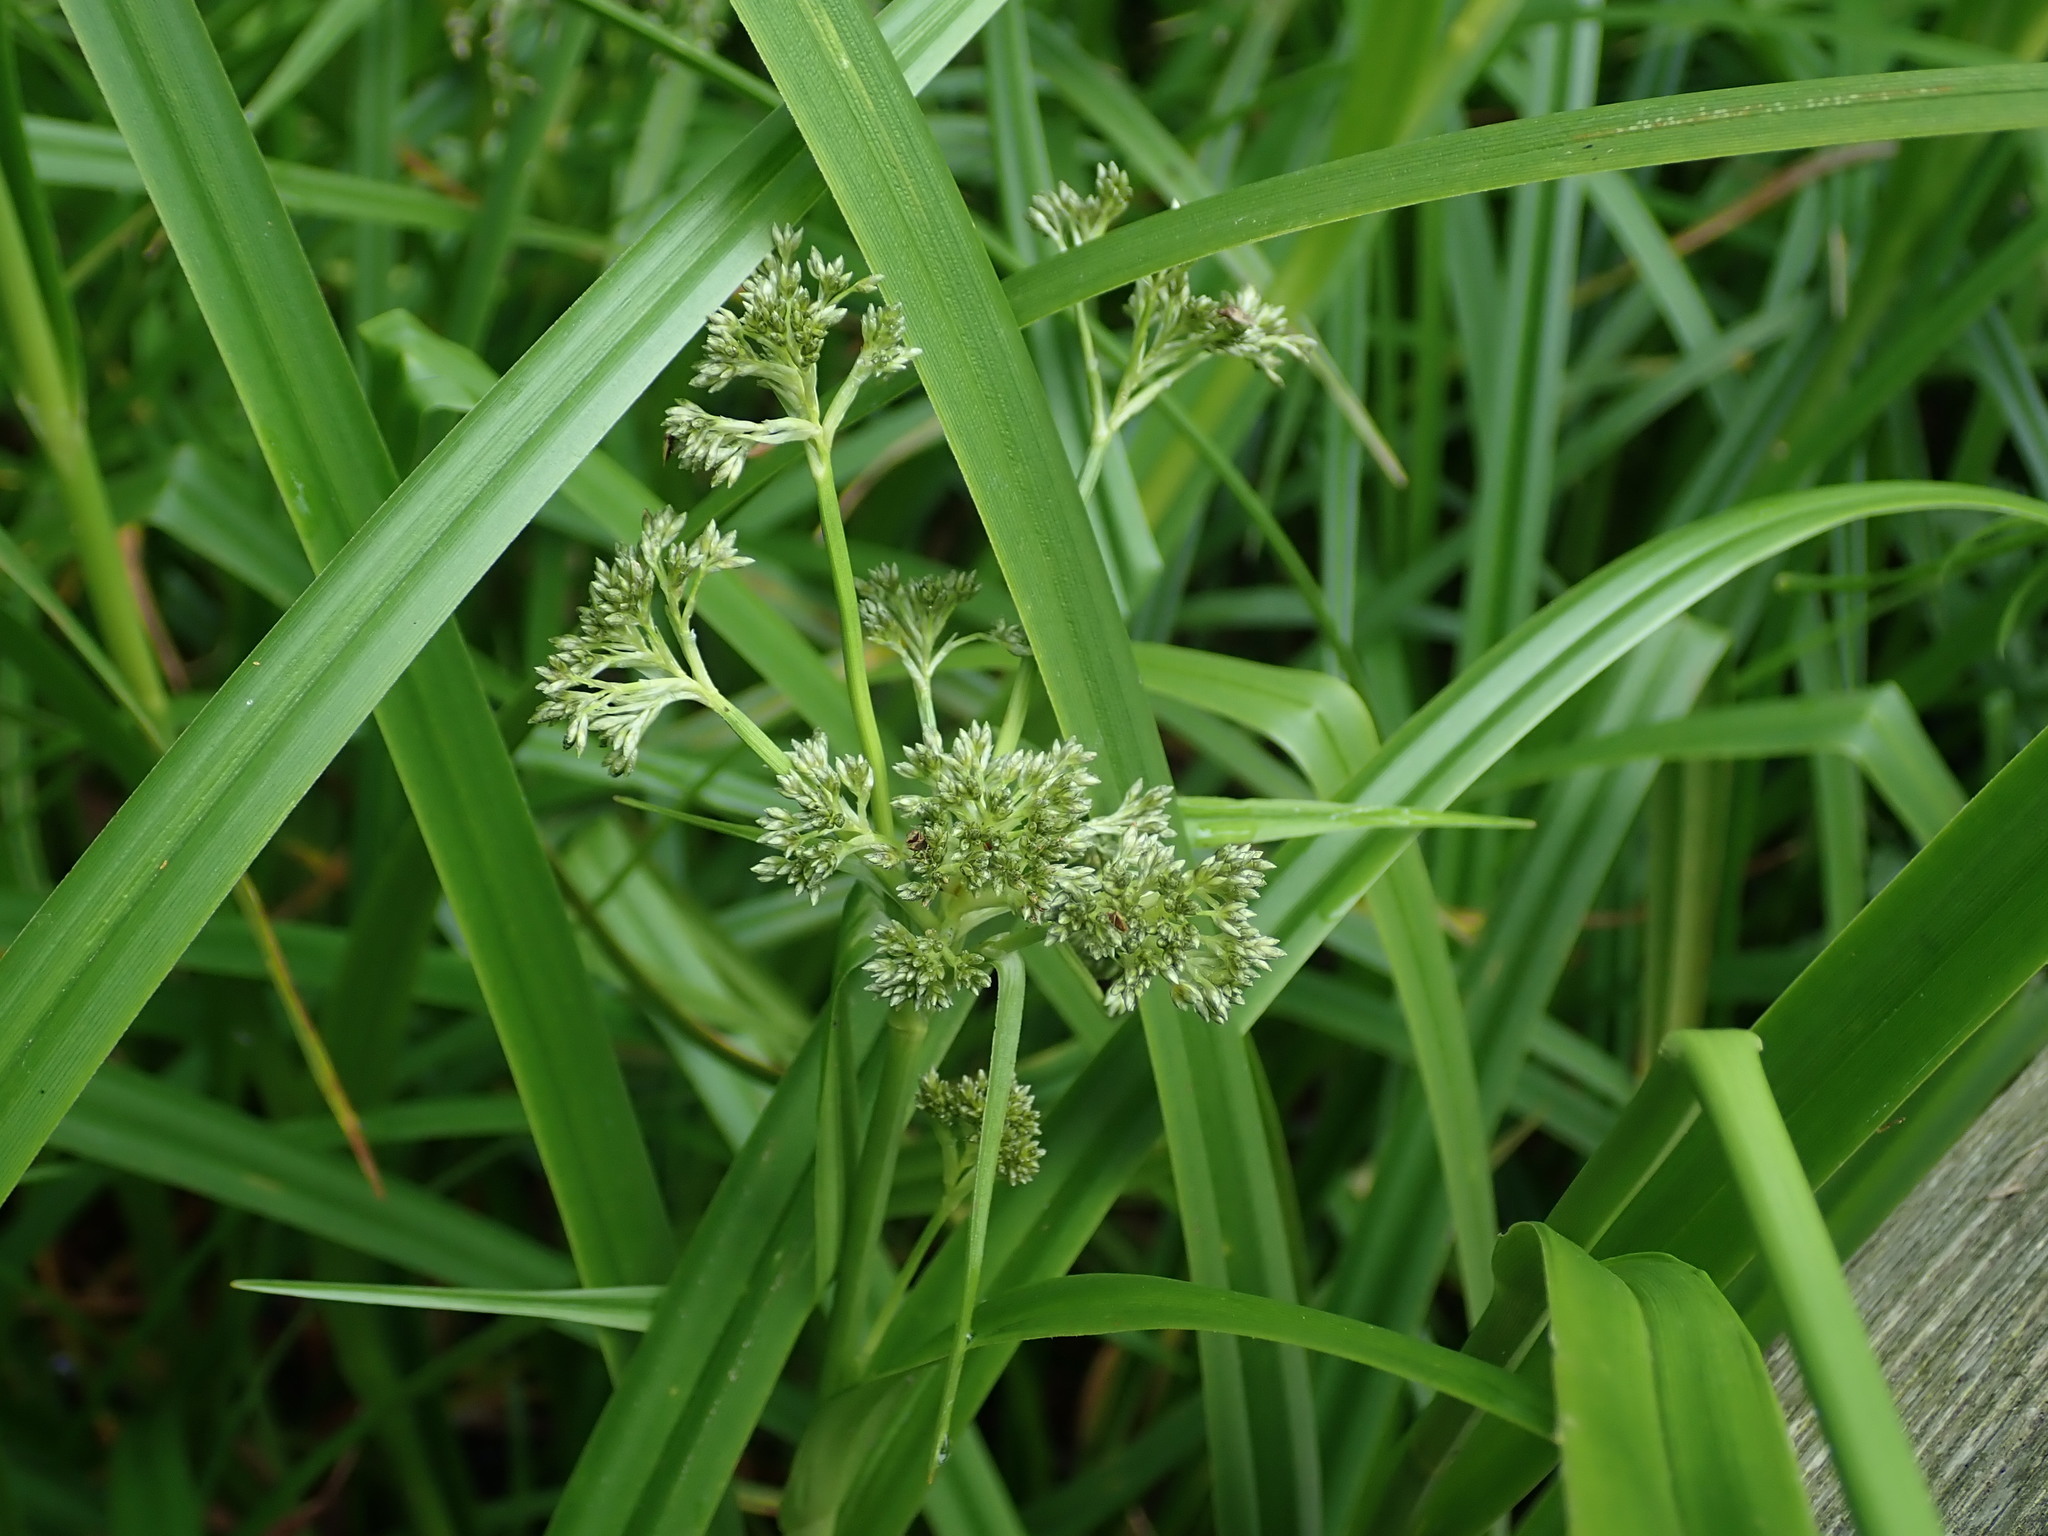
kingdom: Plantae
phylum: Tracheophyta
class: Liliopsida
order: Poales
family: Cyperaceae
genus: Scirpus
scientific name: Scirpus sylvaticus
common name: Wood club-rush
